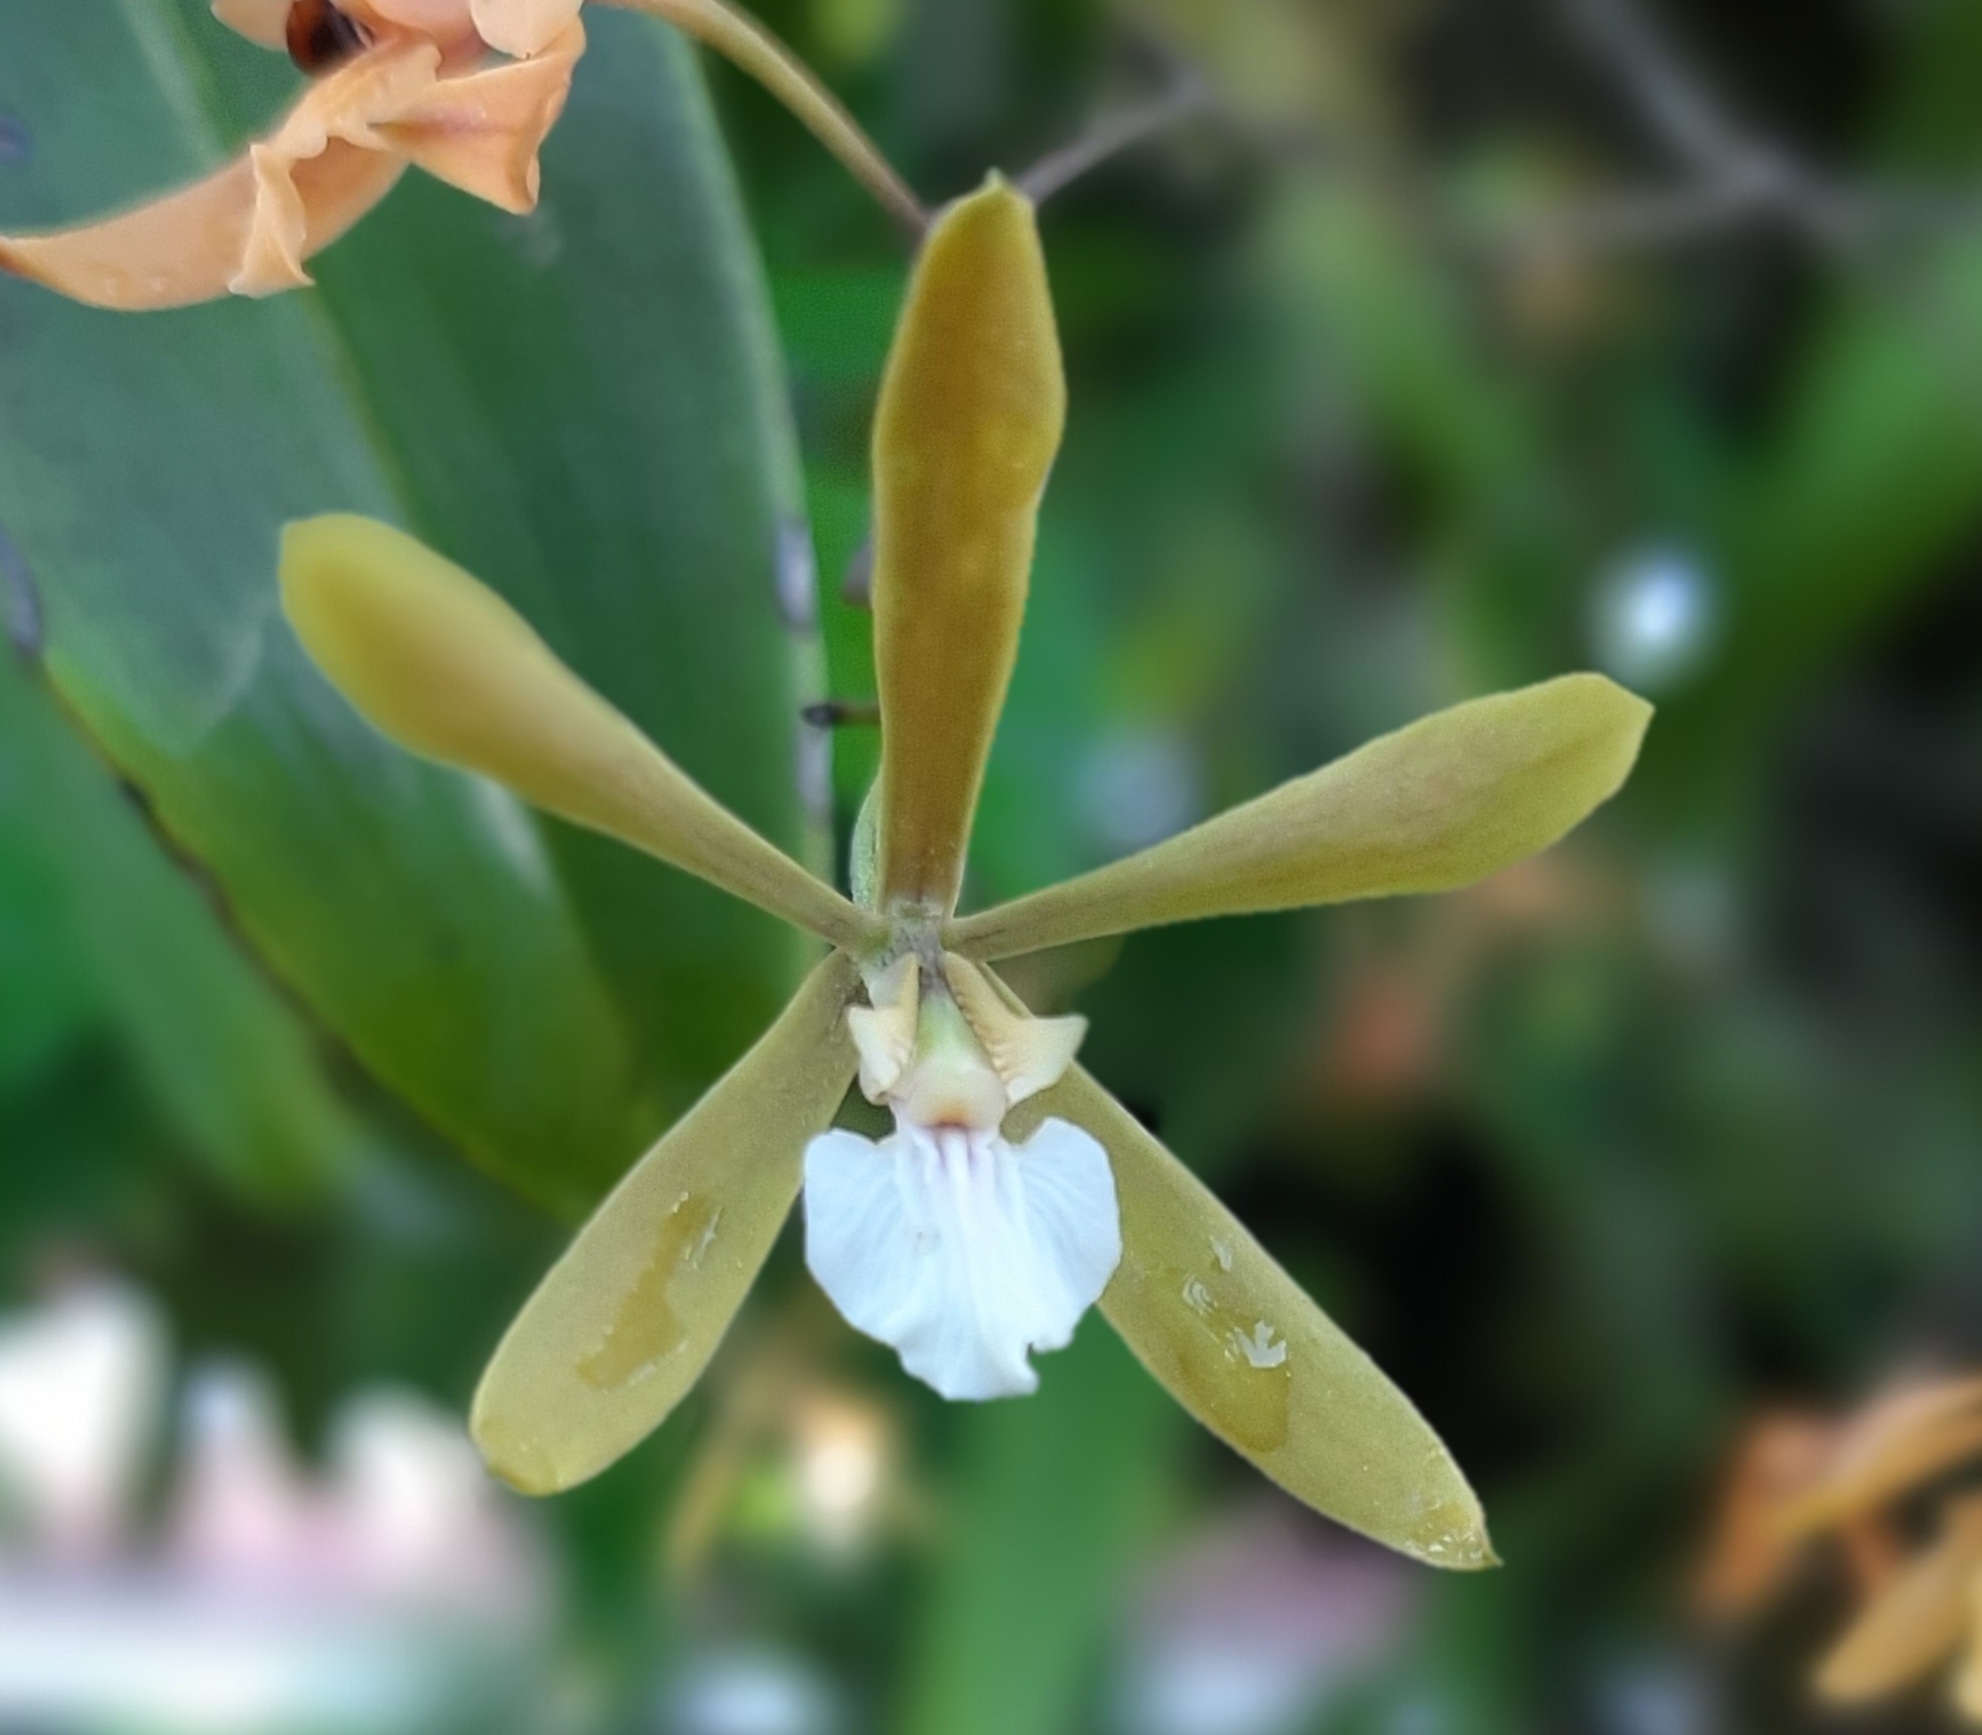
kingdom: Plantae
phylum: Tracheophyta
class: Liliopsida
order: Asparagales
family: Orchidaceae
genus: Encyclia
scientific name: Encyclia stellata
